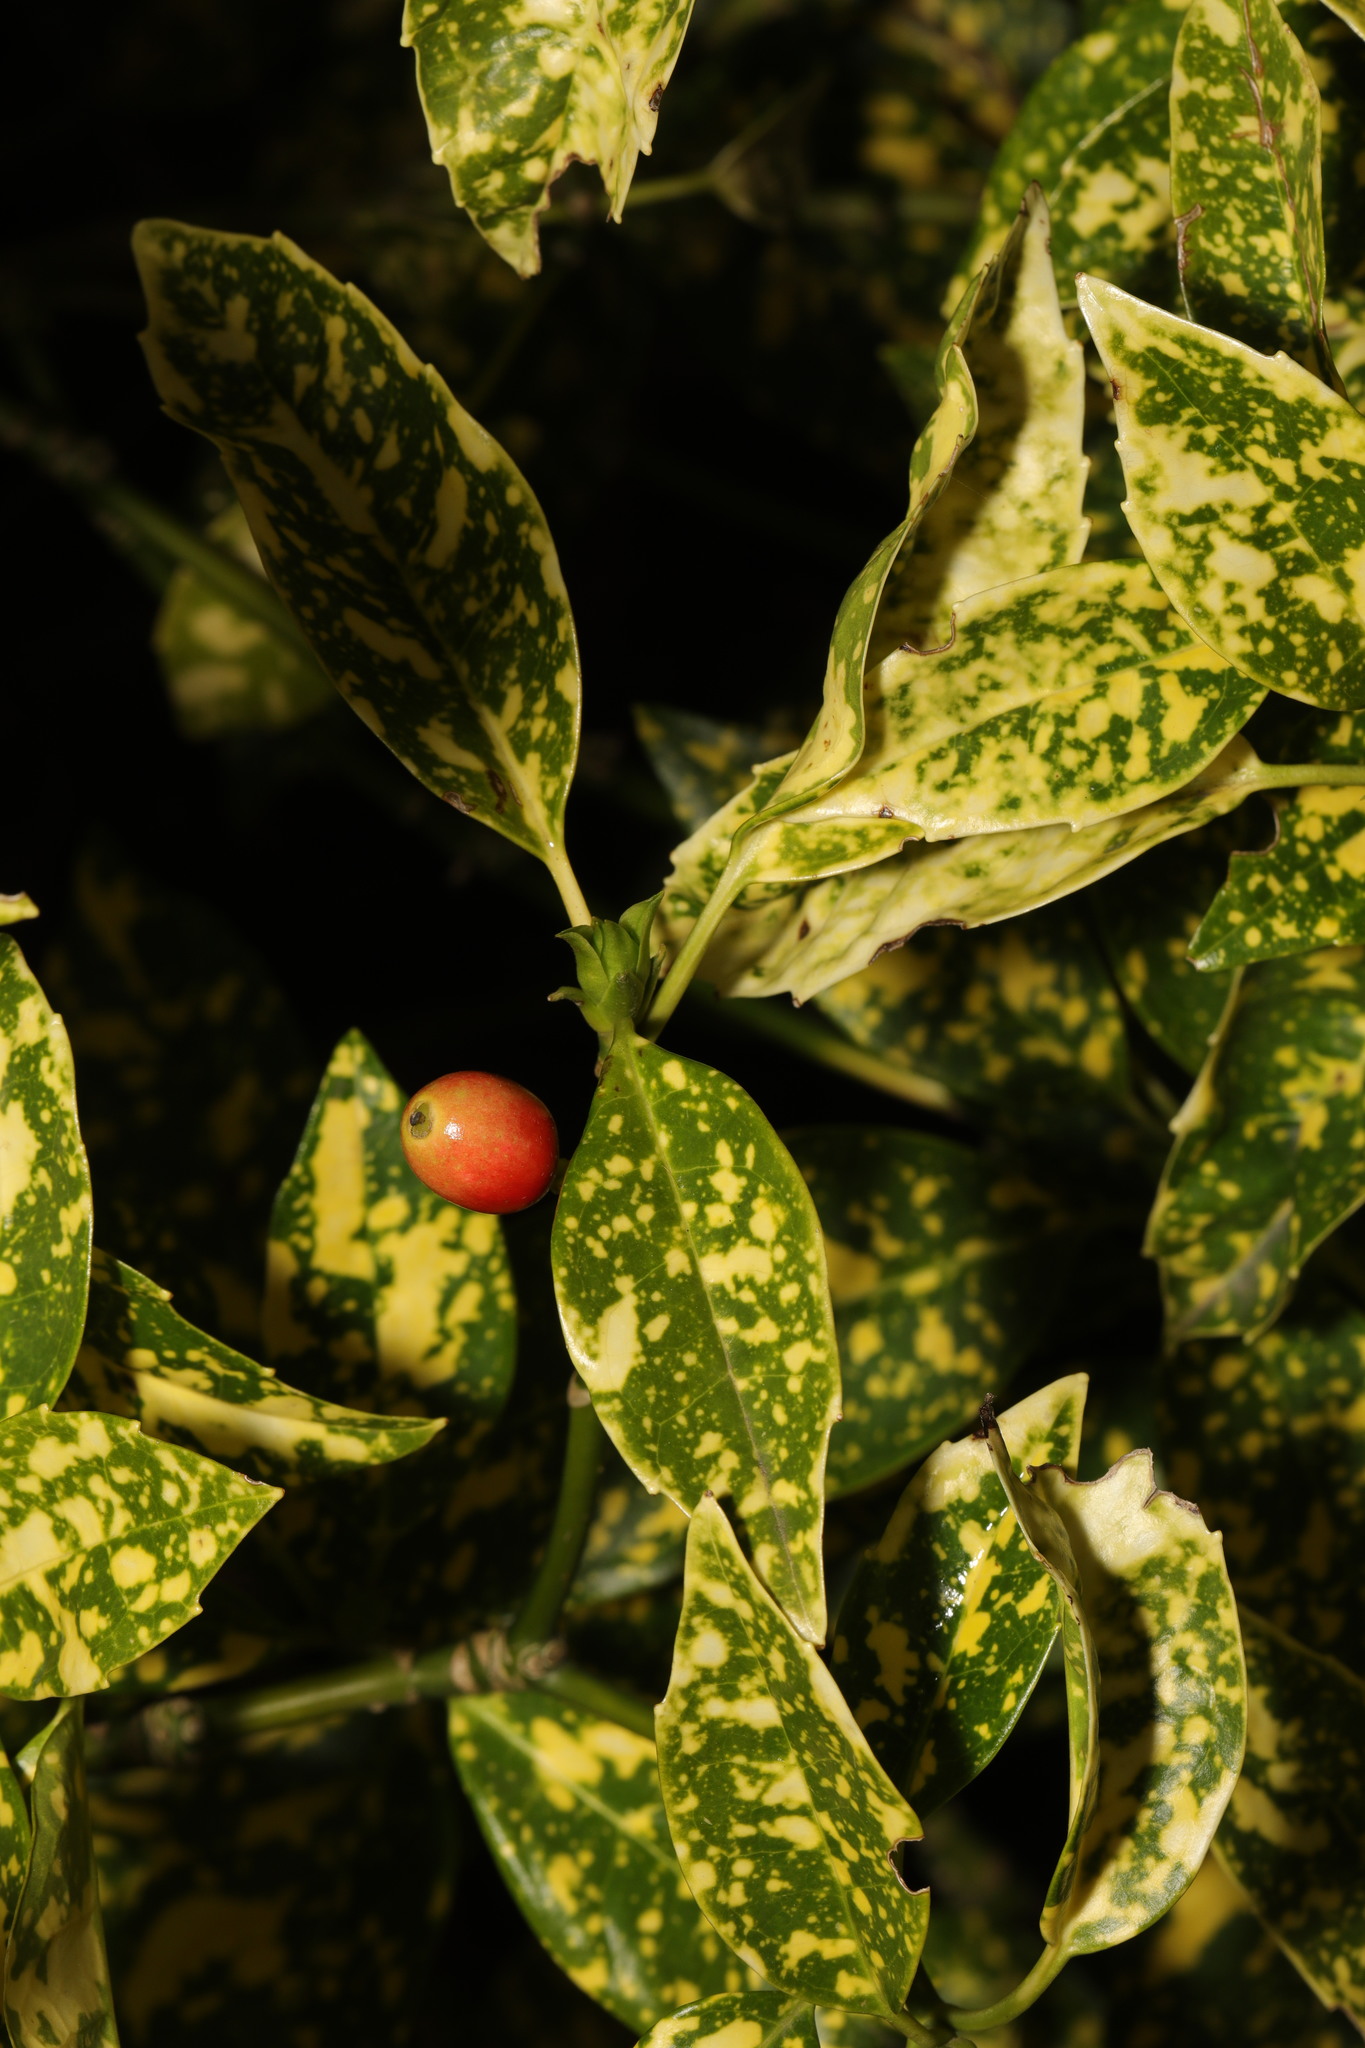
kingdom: Plantae
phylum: Tracheophyta
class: Magnoliopsida
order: Garryales
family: Garryaceae
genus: Aucuba
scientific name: Aucuba japonica
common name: Spotted-laurel
